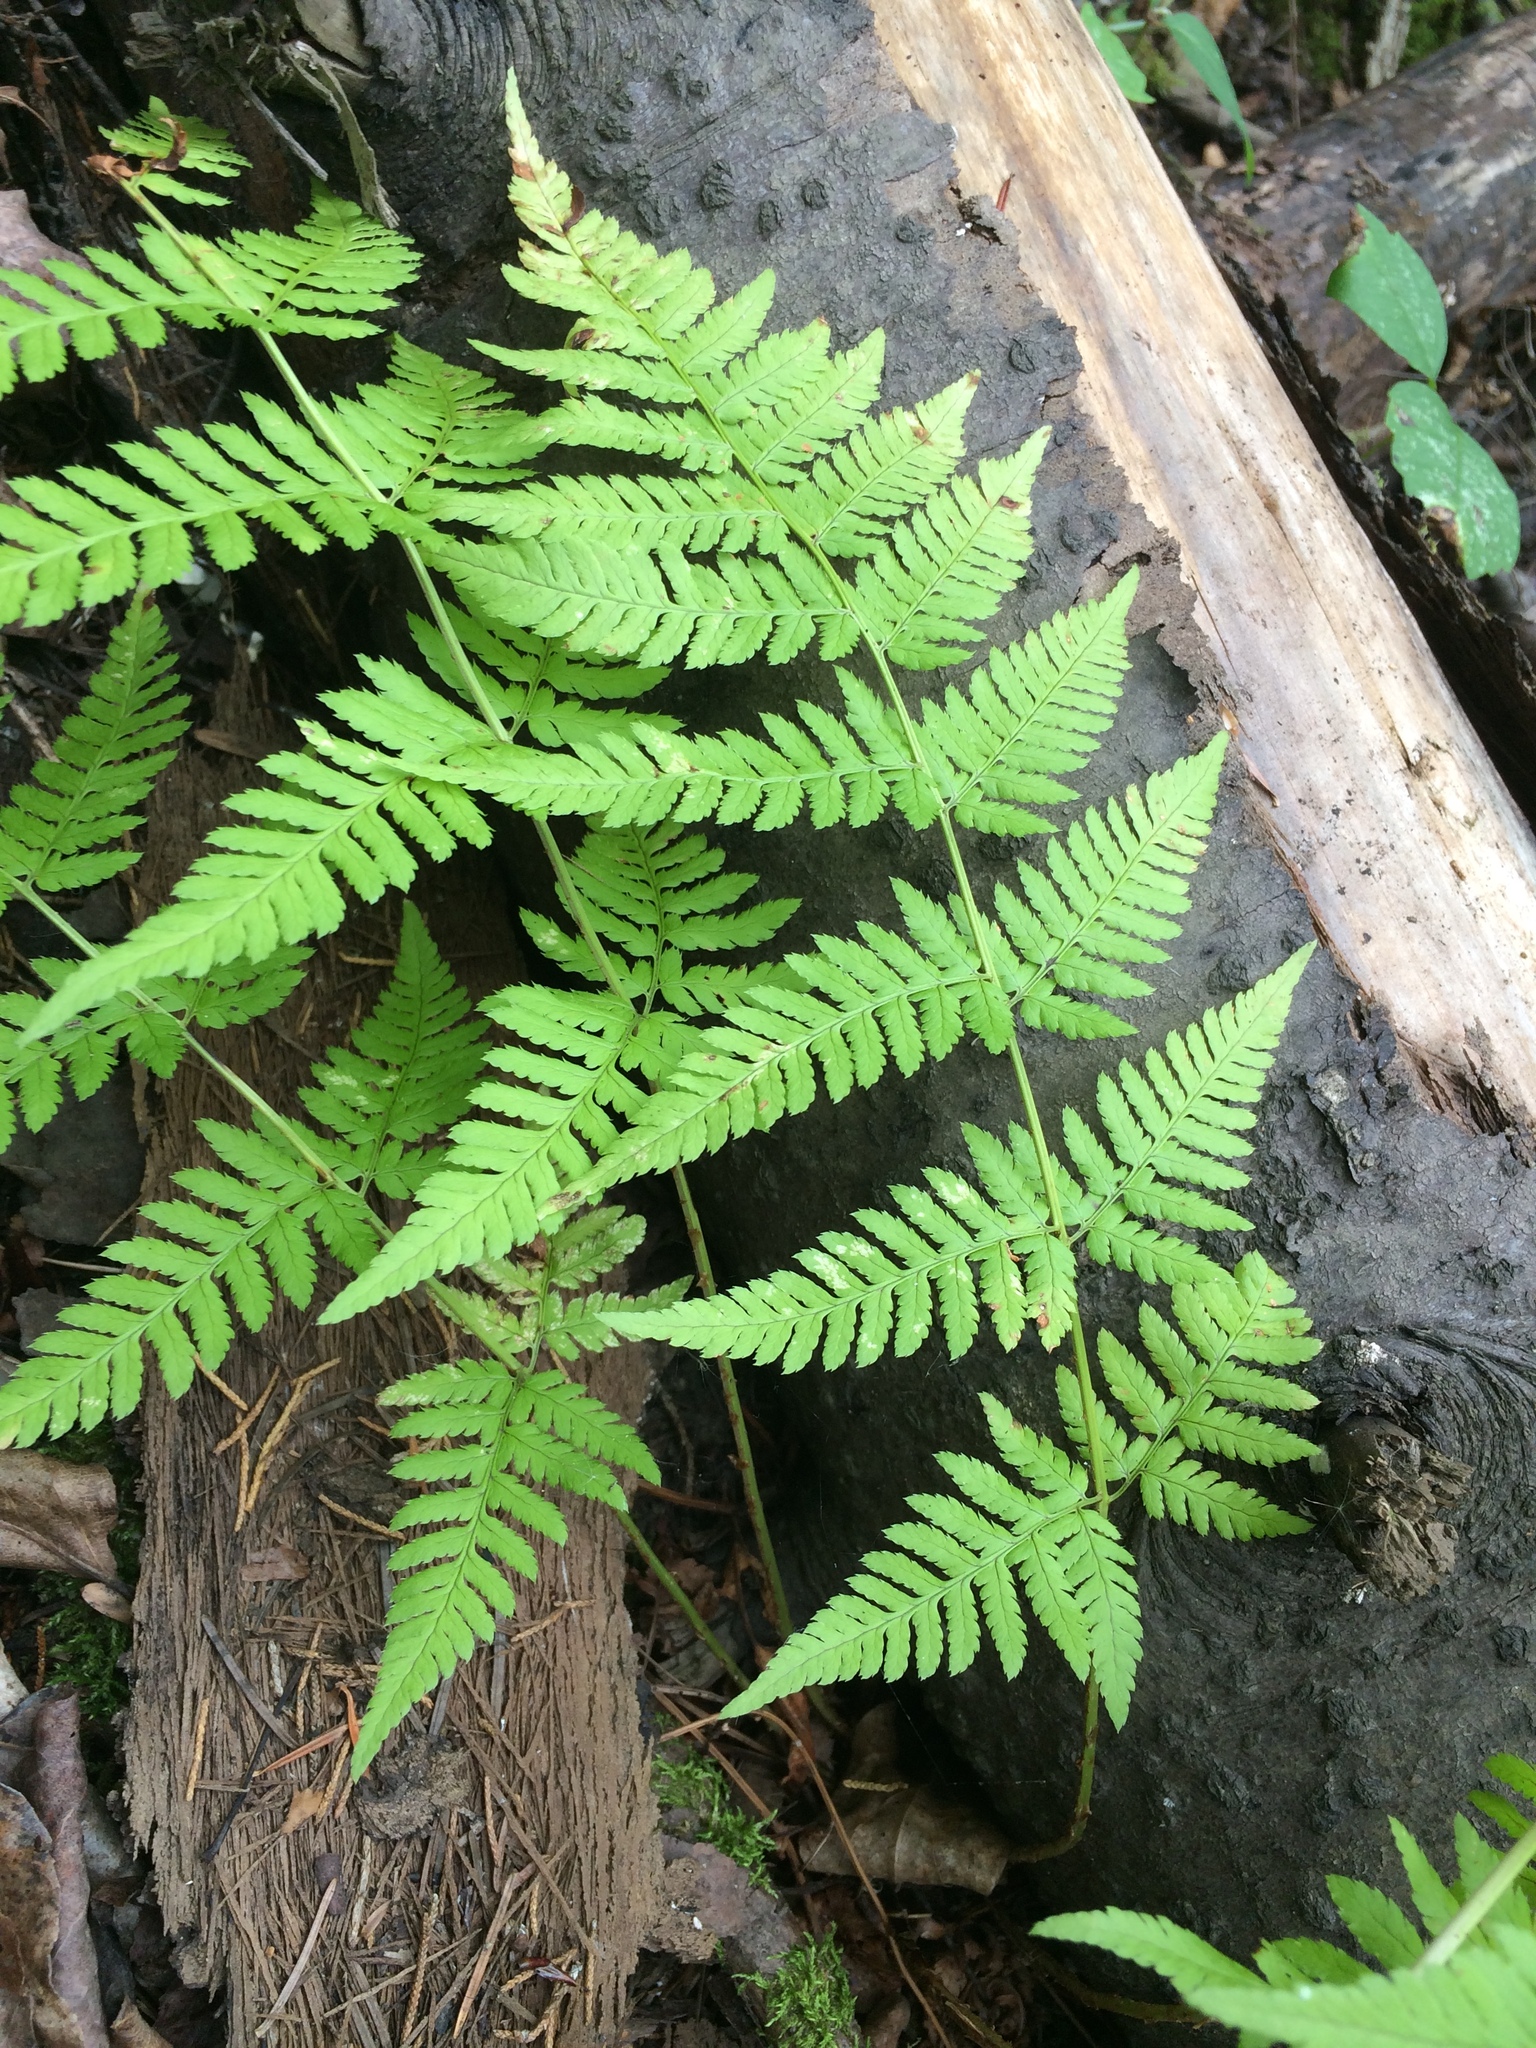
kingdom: Plantae
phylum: Tracheophyta
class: Polypodiopsida
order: Polypodiales
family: Dryopteridaceae
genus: Dryopteris
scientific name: Dryopteris carthusiana
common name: Narrow buckler-fern
